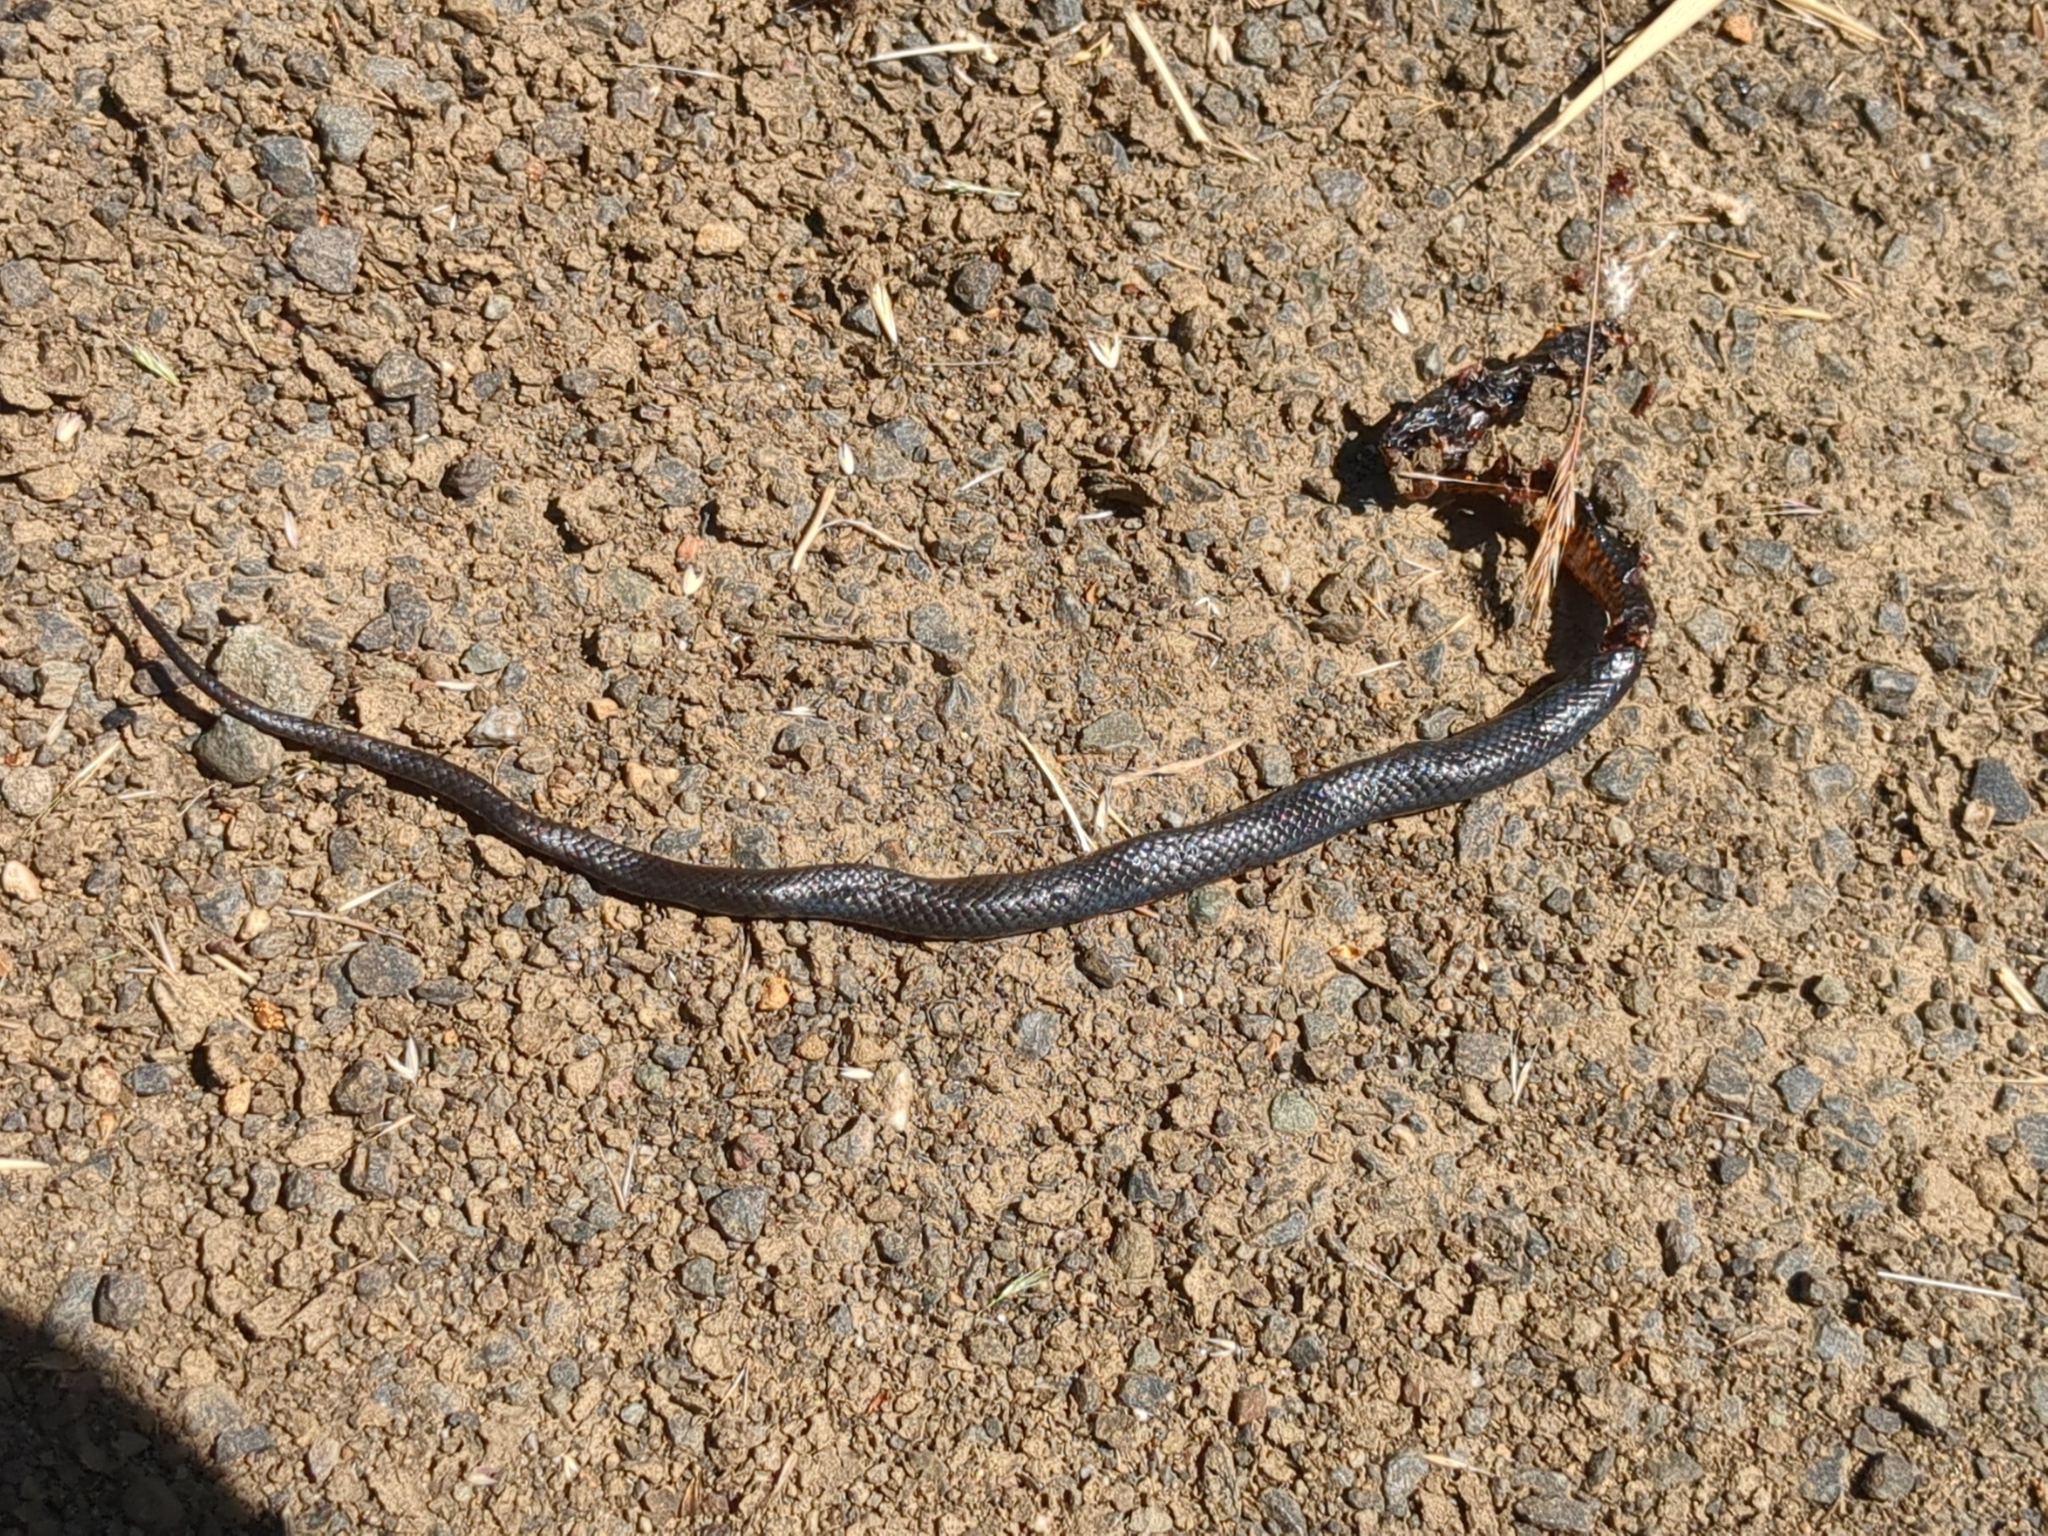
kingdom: Animalia
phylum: Chordata
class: Squamata
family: Colubridae
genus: Diadophis
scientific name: Diadophis punctatus
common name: Ringneck snake
